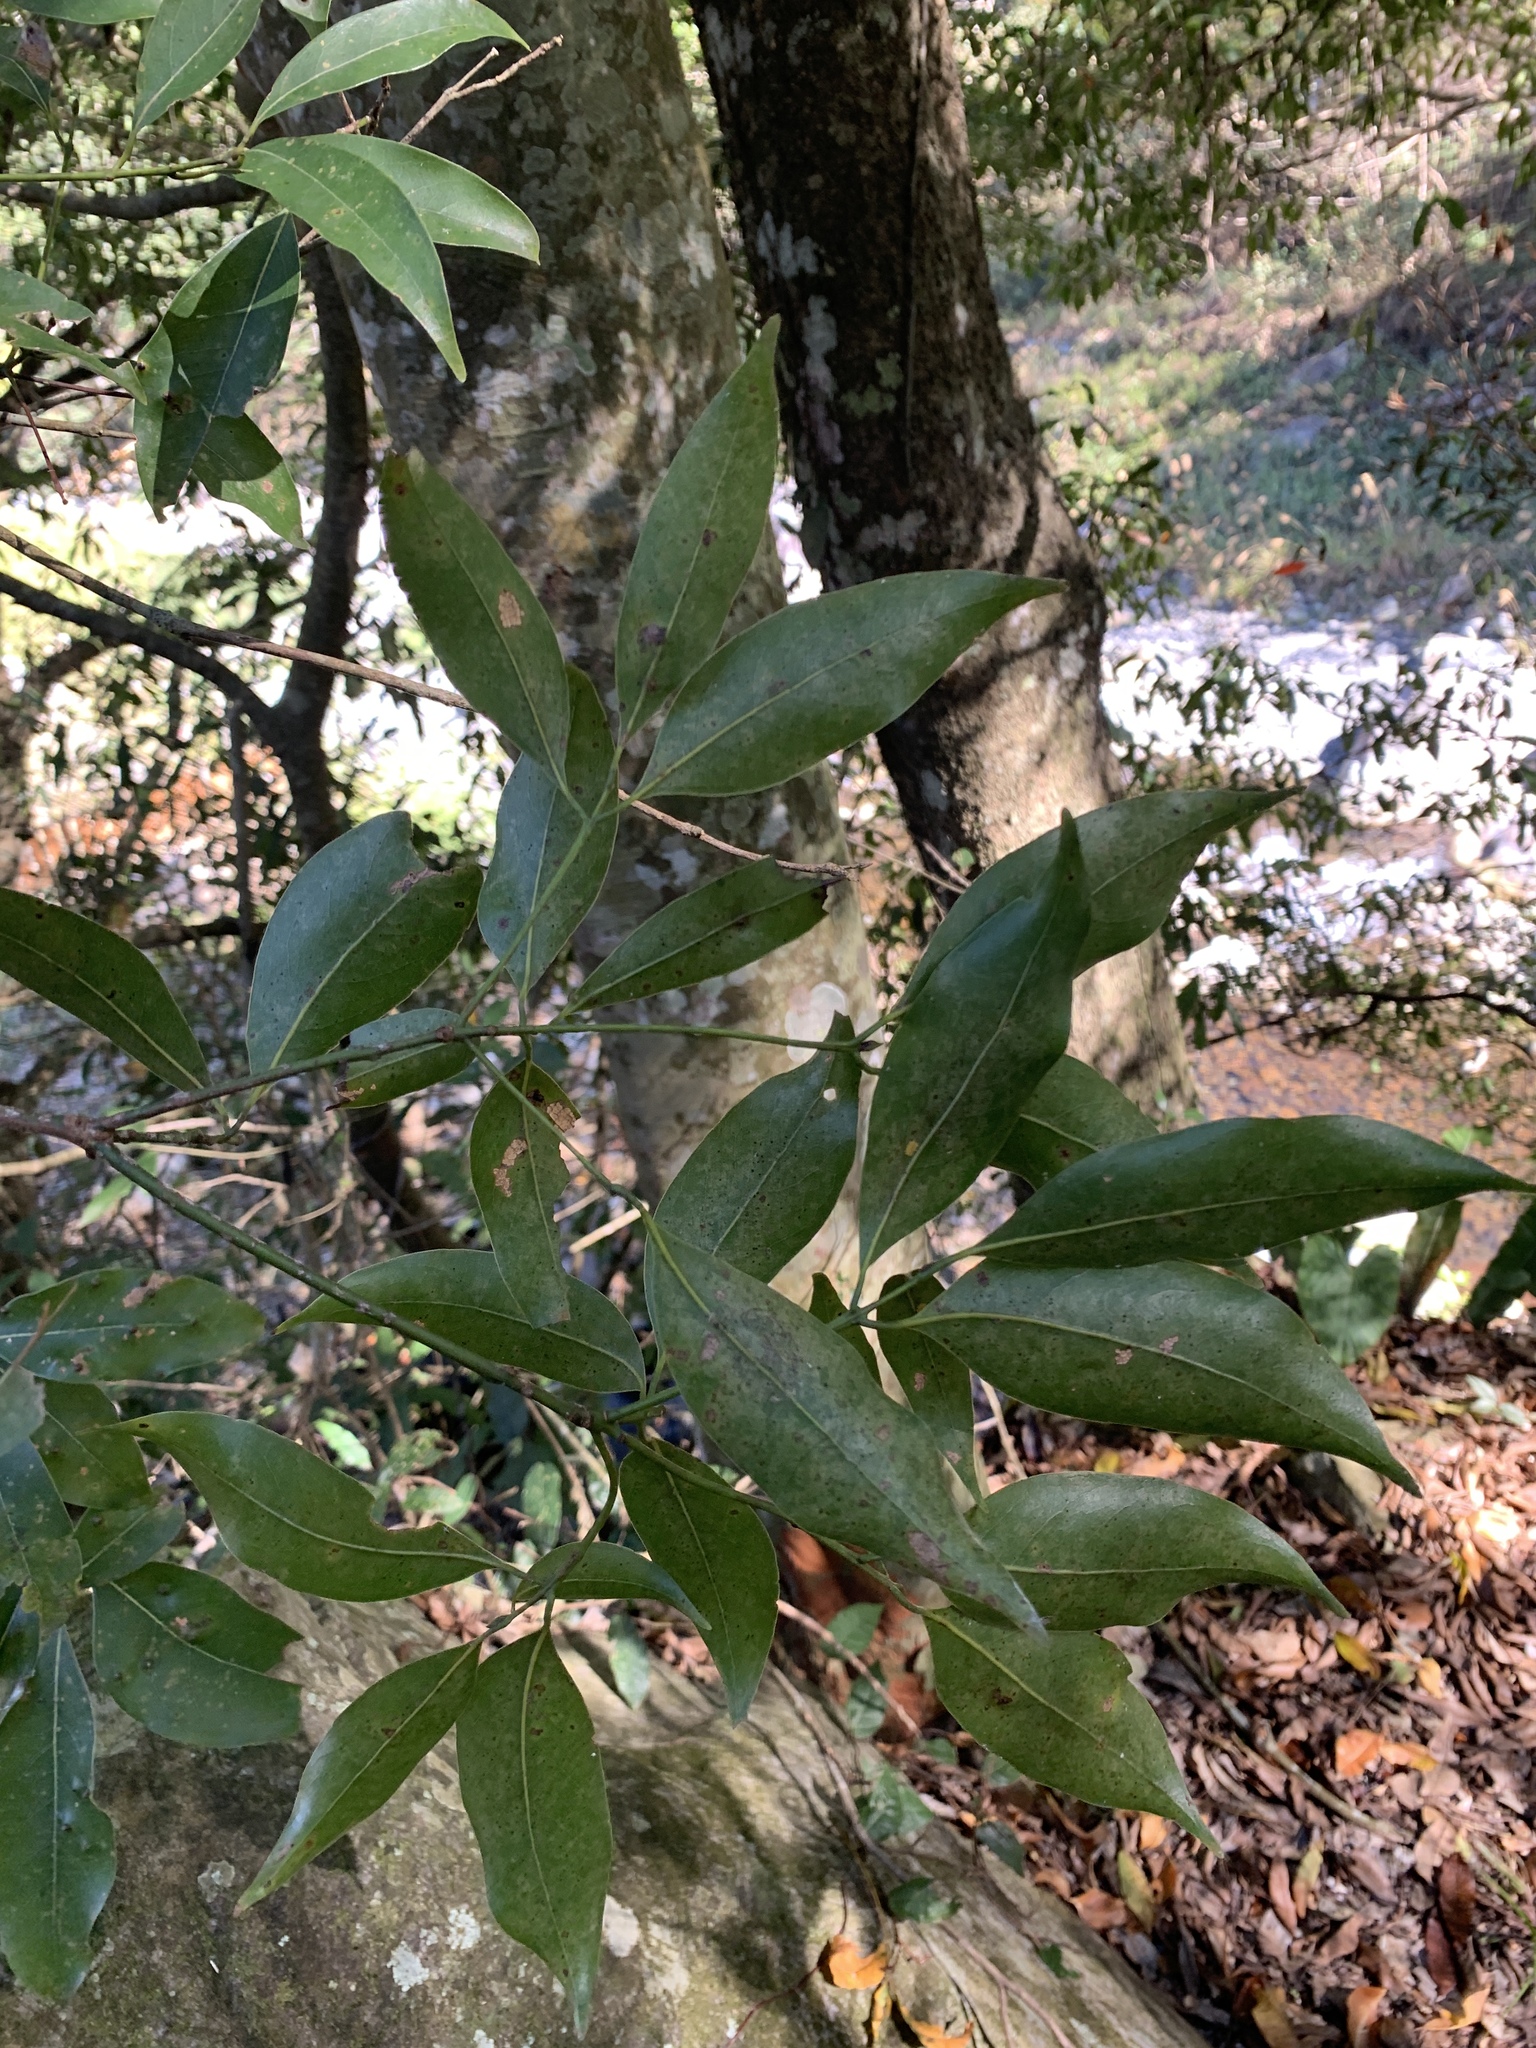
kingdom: Plantae
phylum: Tracheophyta
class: Magnoliopsida
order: Laurales
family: Lauraceae
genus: Beilschmiedia
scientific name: Beilschmiedia erythrophloia
